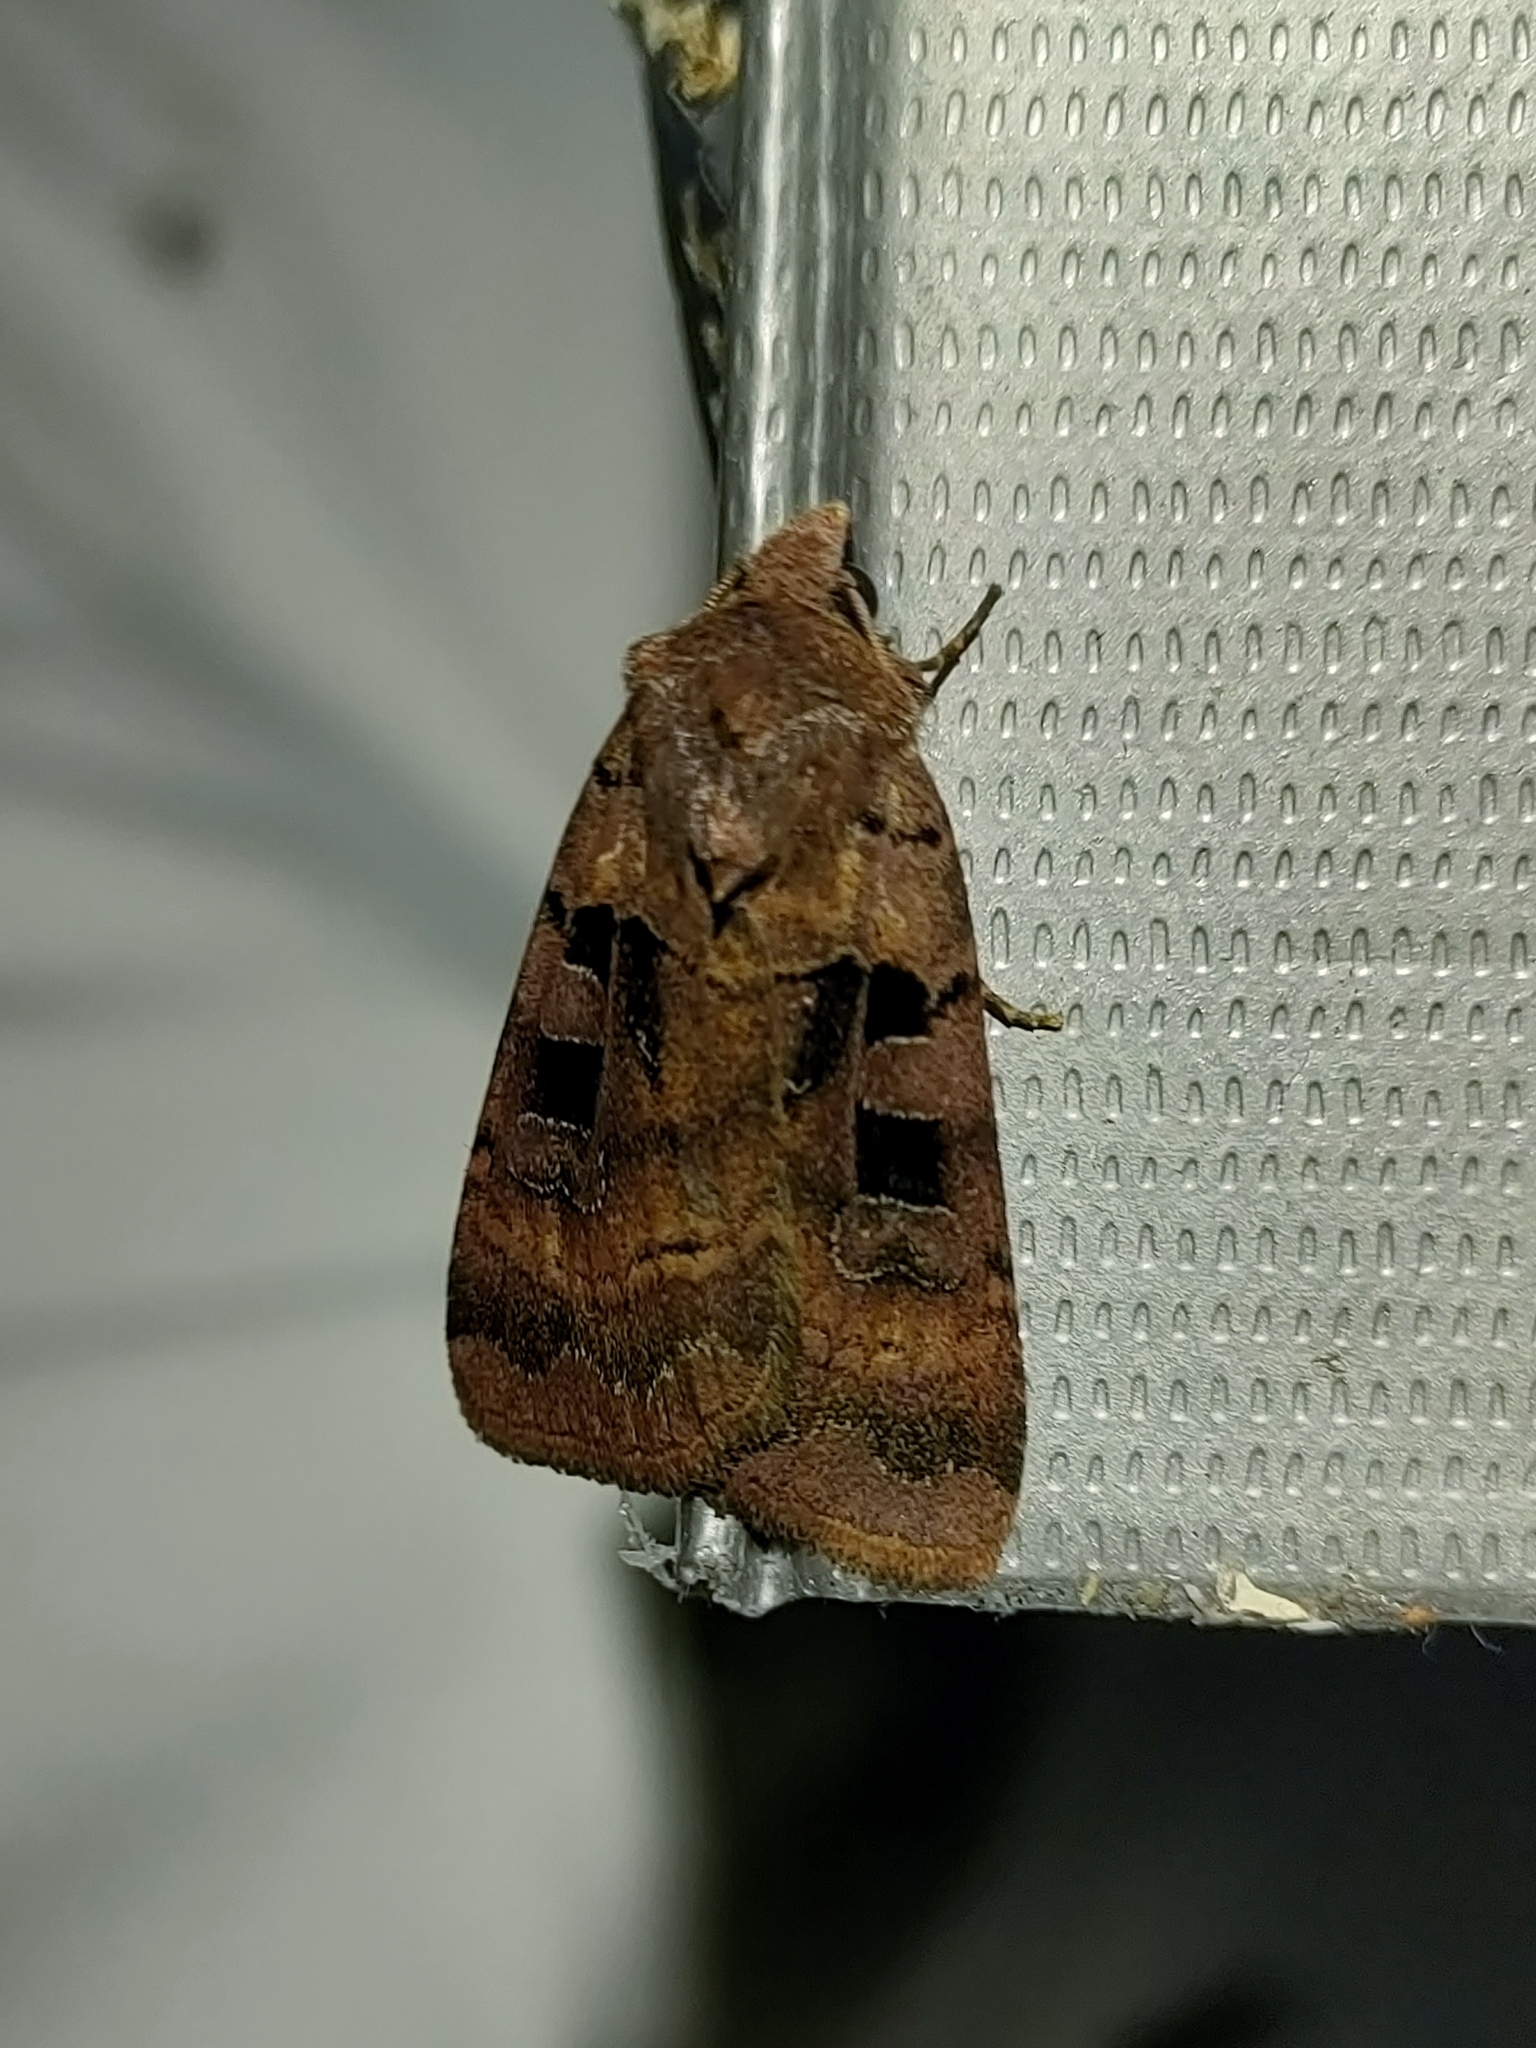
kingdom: Animalia
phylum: Arthropoda
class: Insecta
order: Lepidoptera
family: Noctuidae
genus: Xestia
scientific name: Xestia stigmatica
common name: Square-spotted clay
